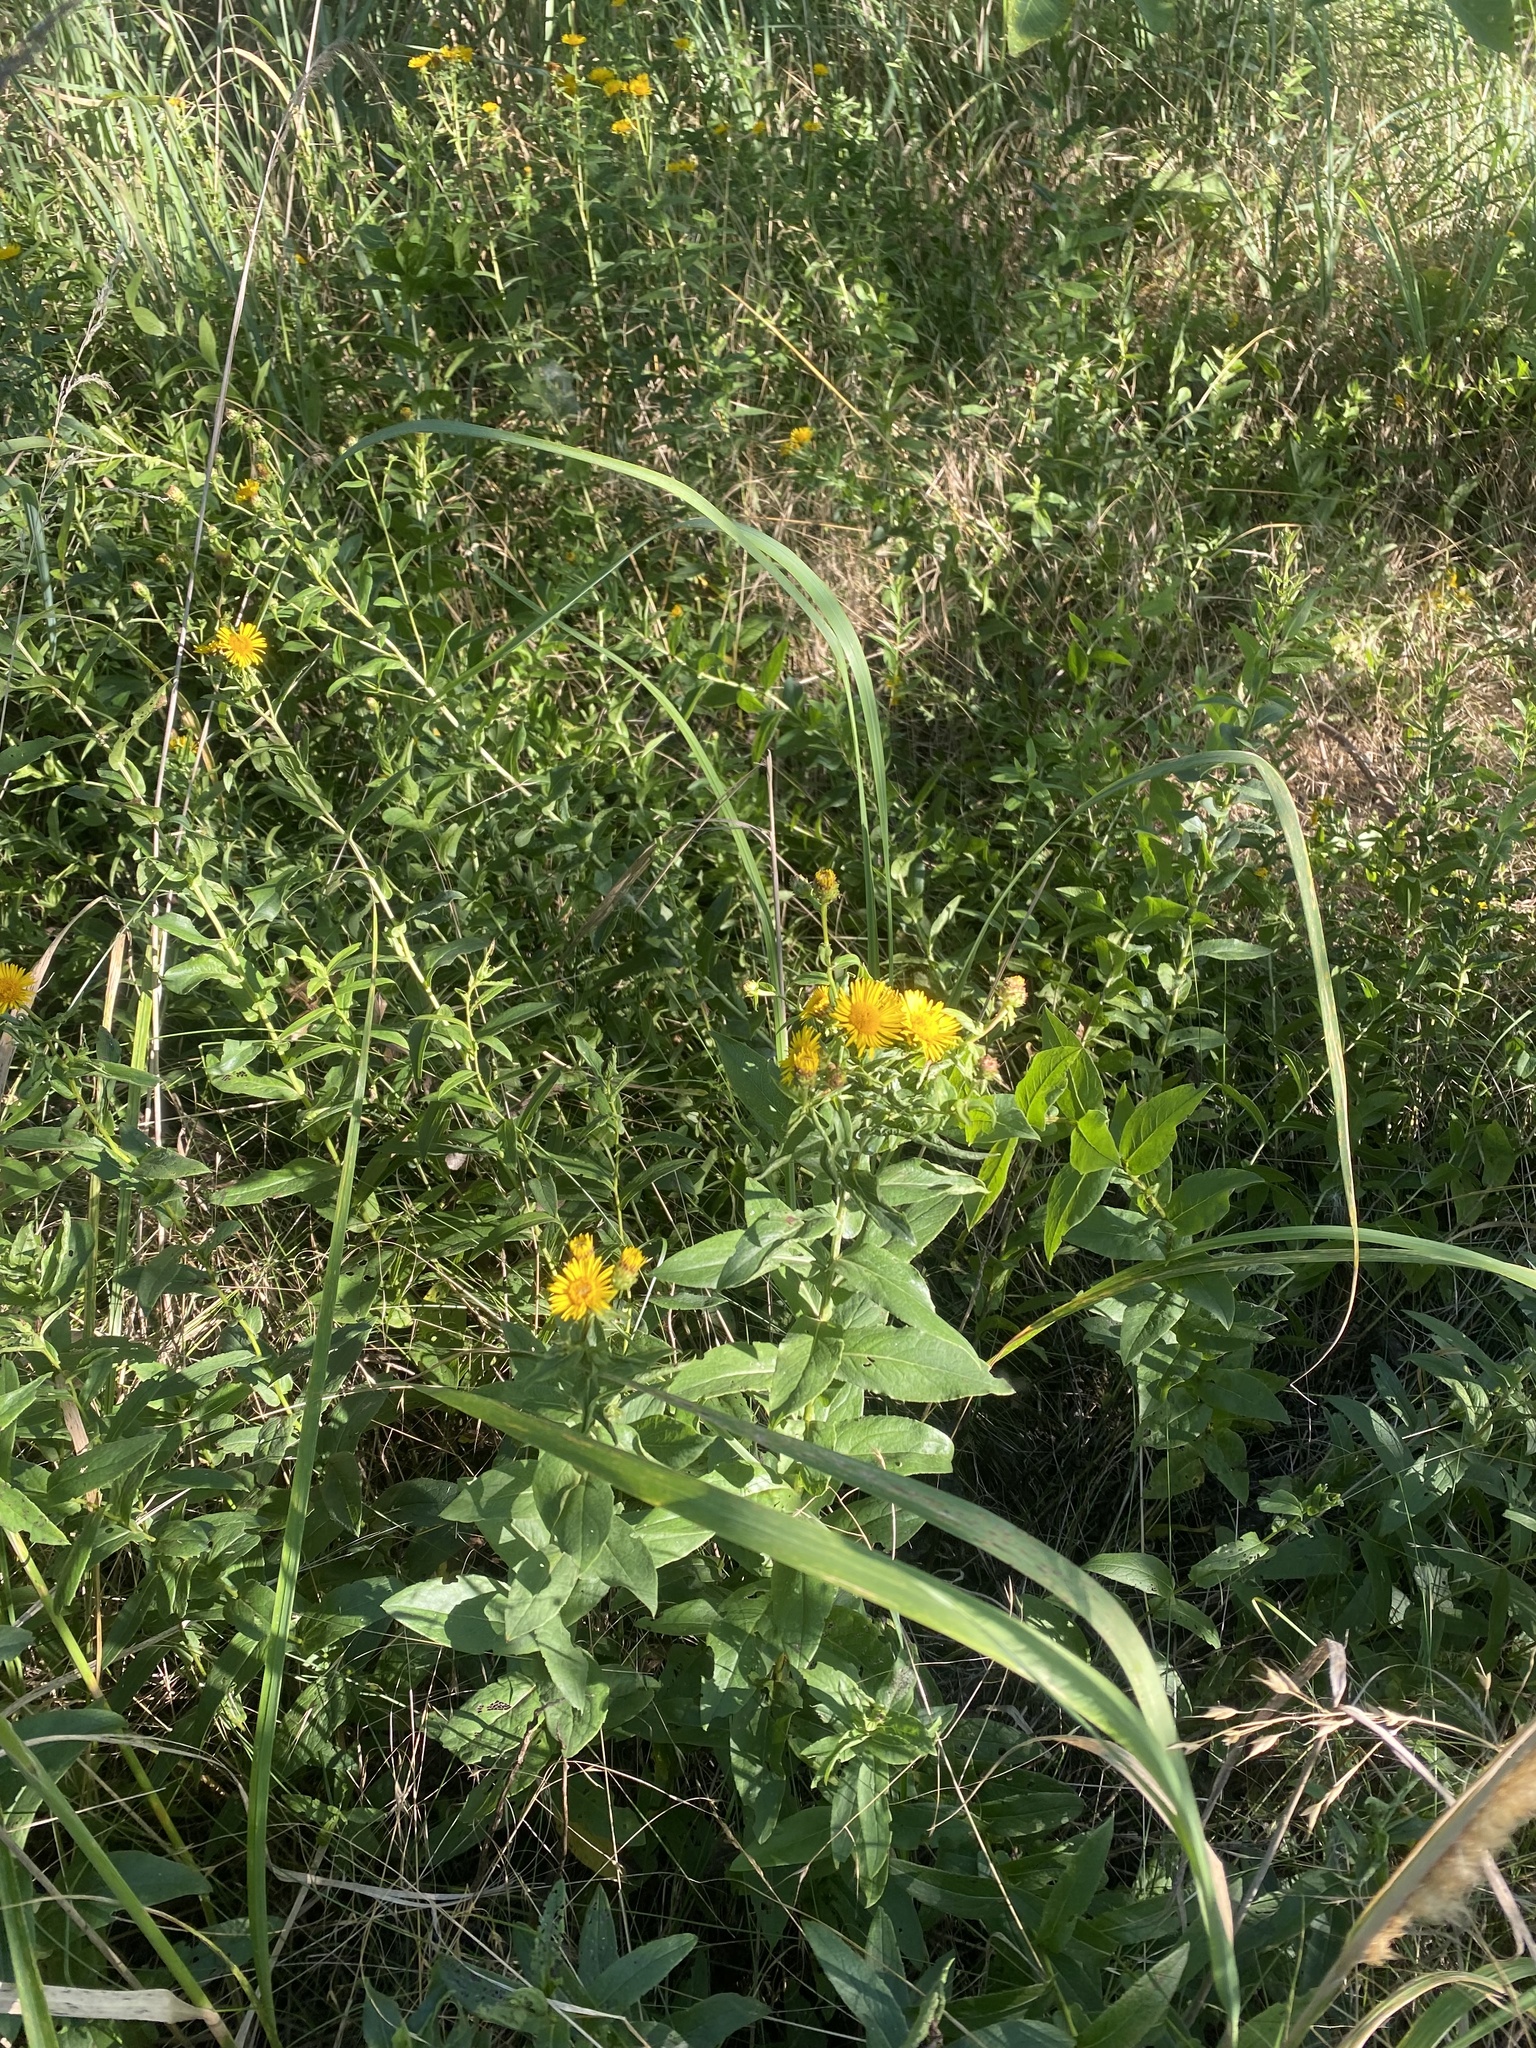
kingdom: Plantae
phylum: Tracheophyta
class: Magnoliopsida
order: Asterales
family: Asteraceae
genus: Pentanema
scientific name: Pentanema asperum
